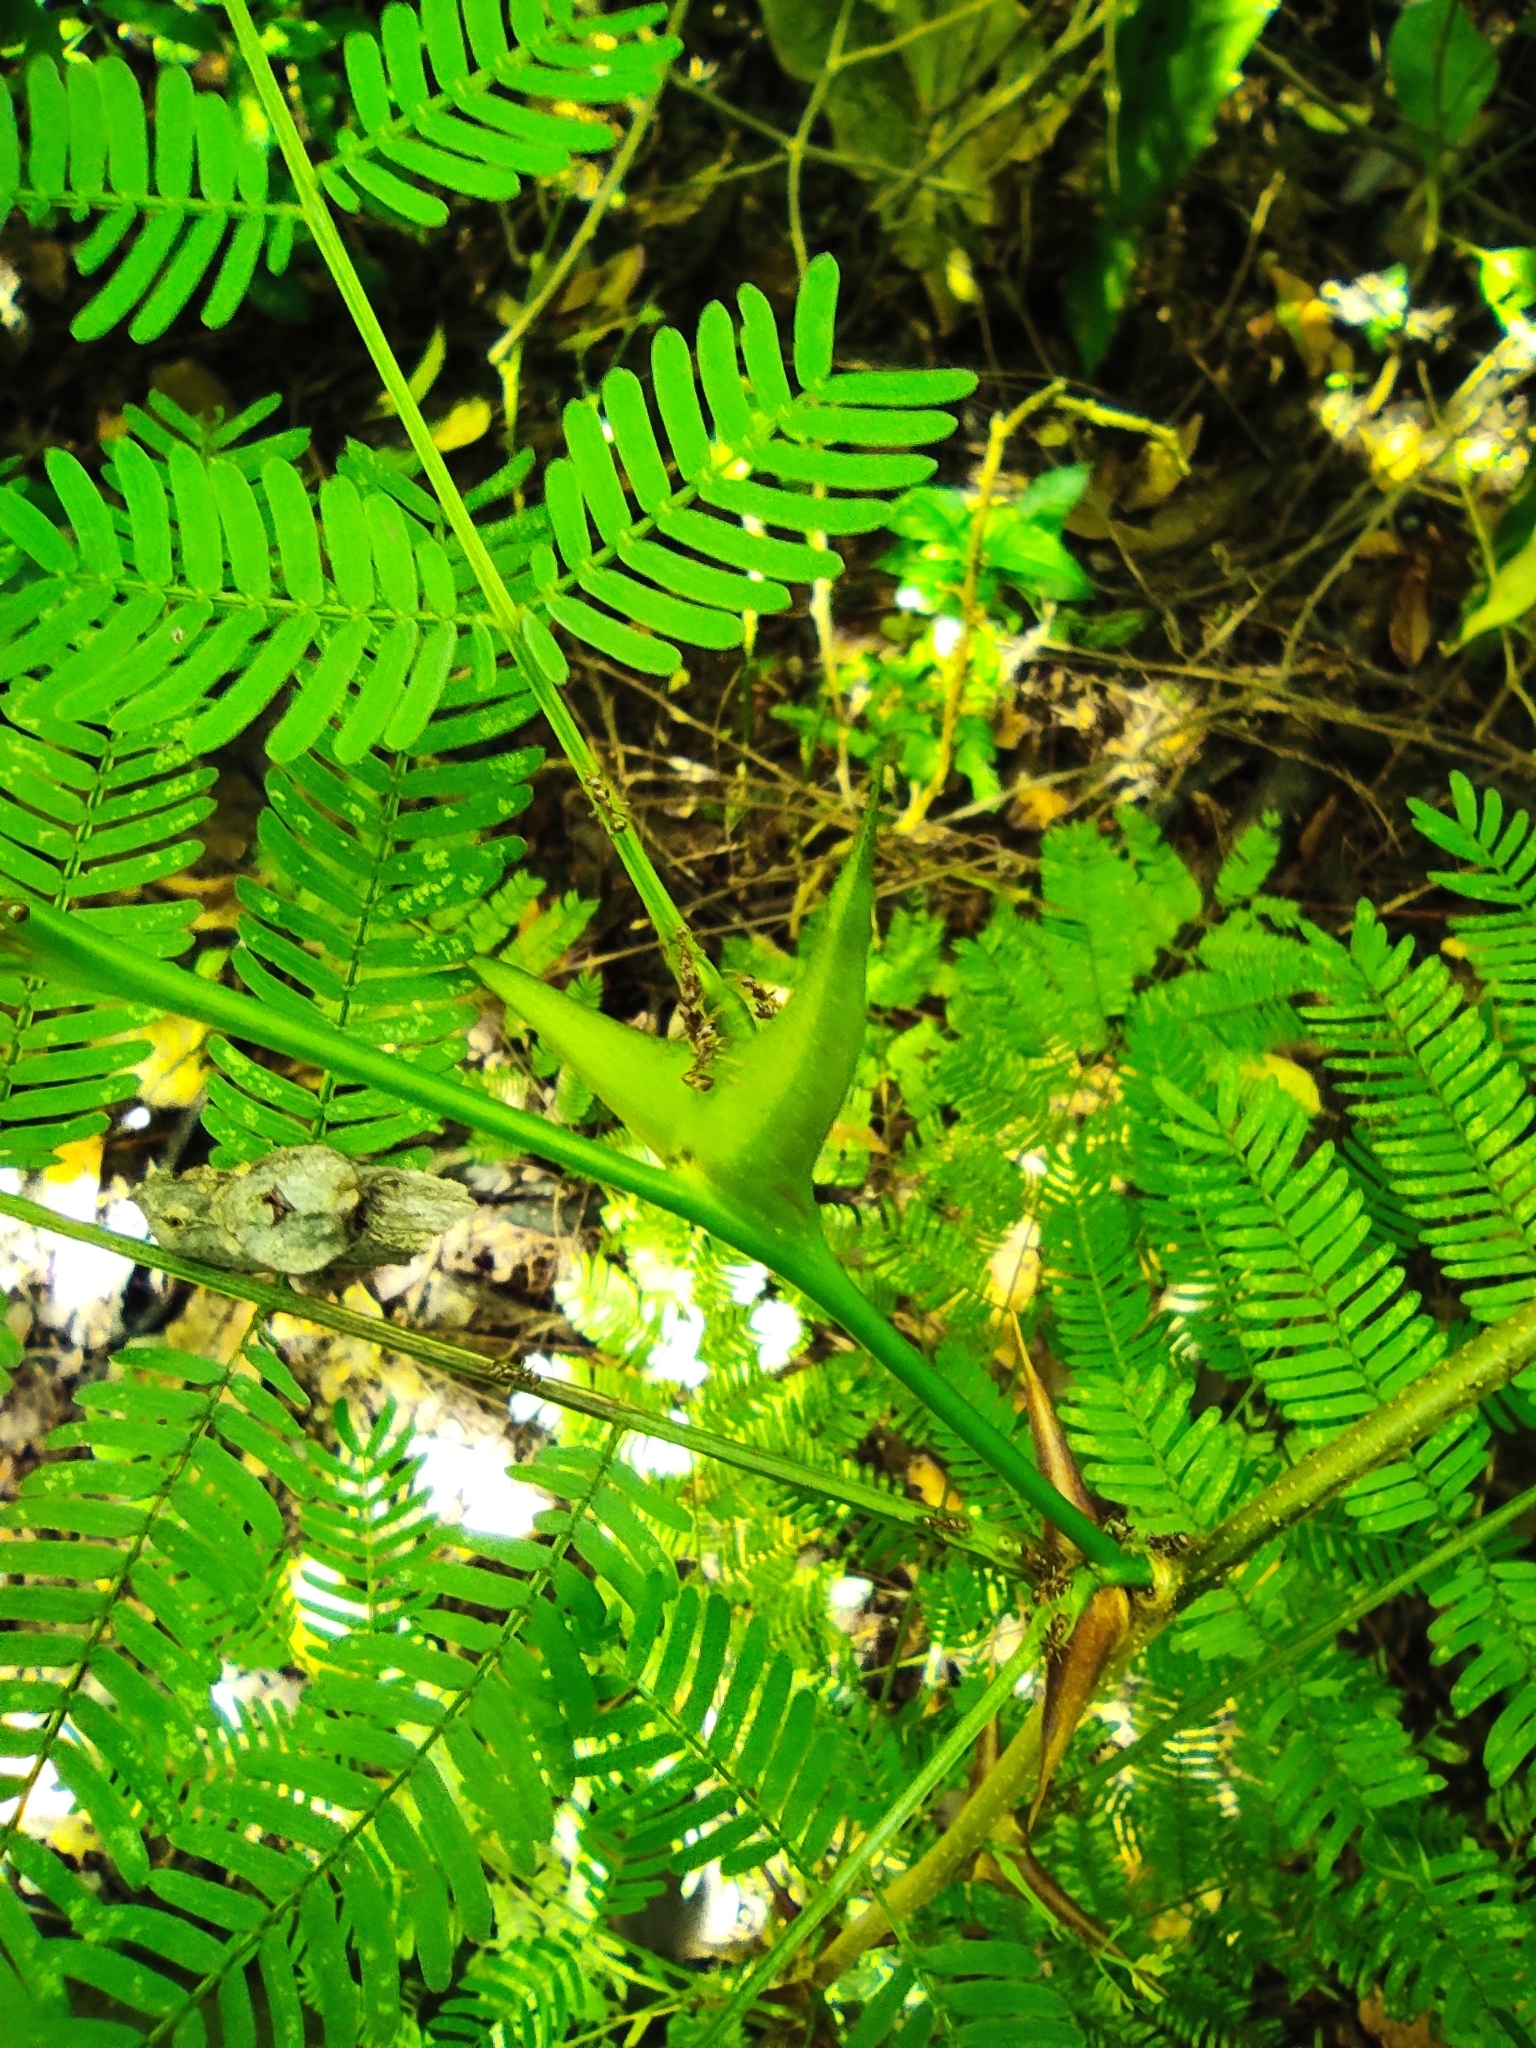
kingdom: Plantae
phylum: Tracheophyta
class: Magnoliopsida
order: Fabales
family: Fabaceae
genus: Vachellia
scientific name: Vachellia collinsii
